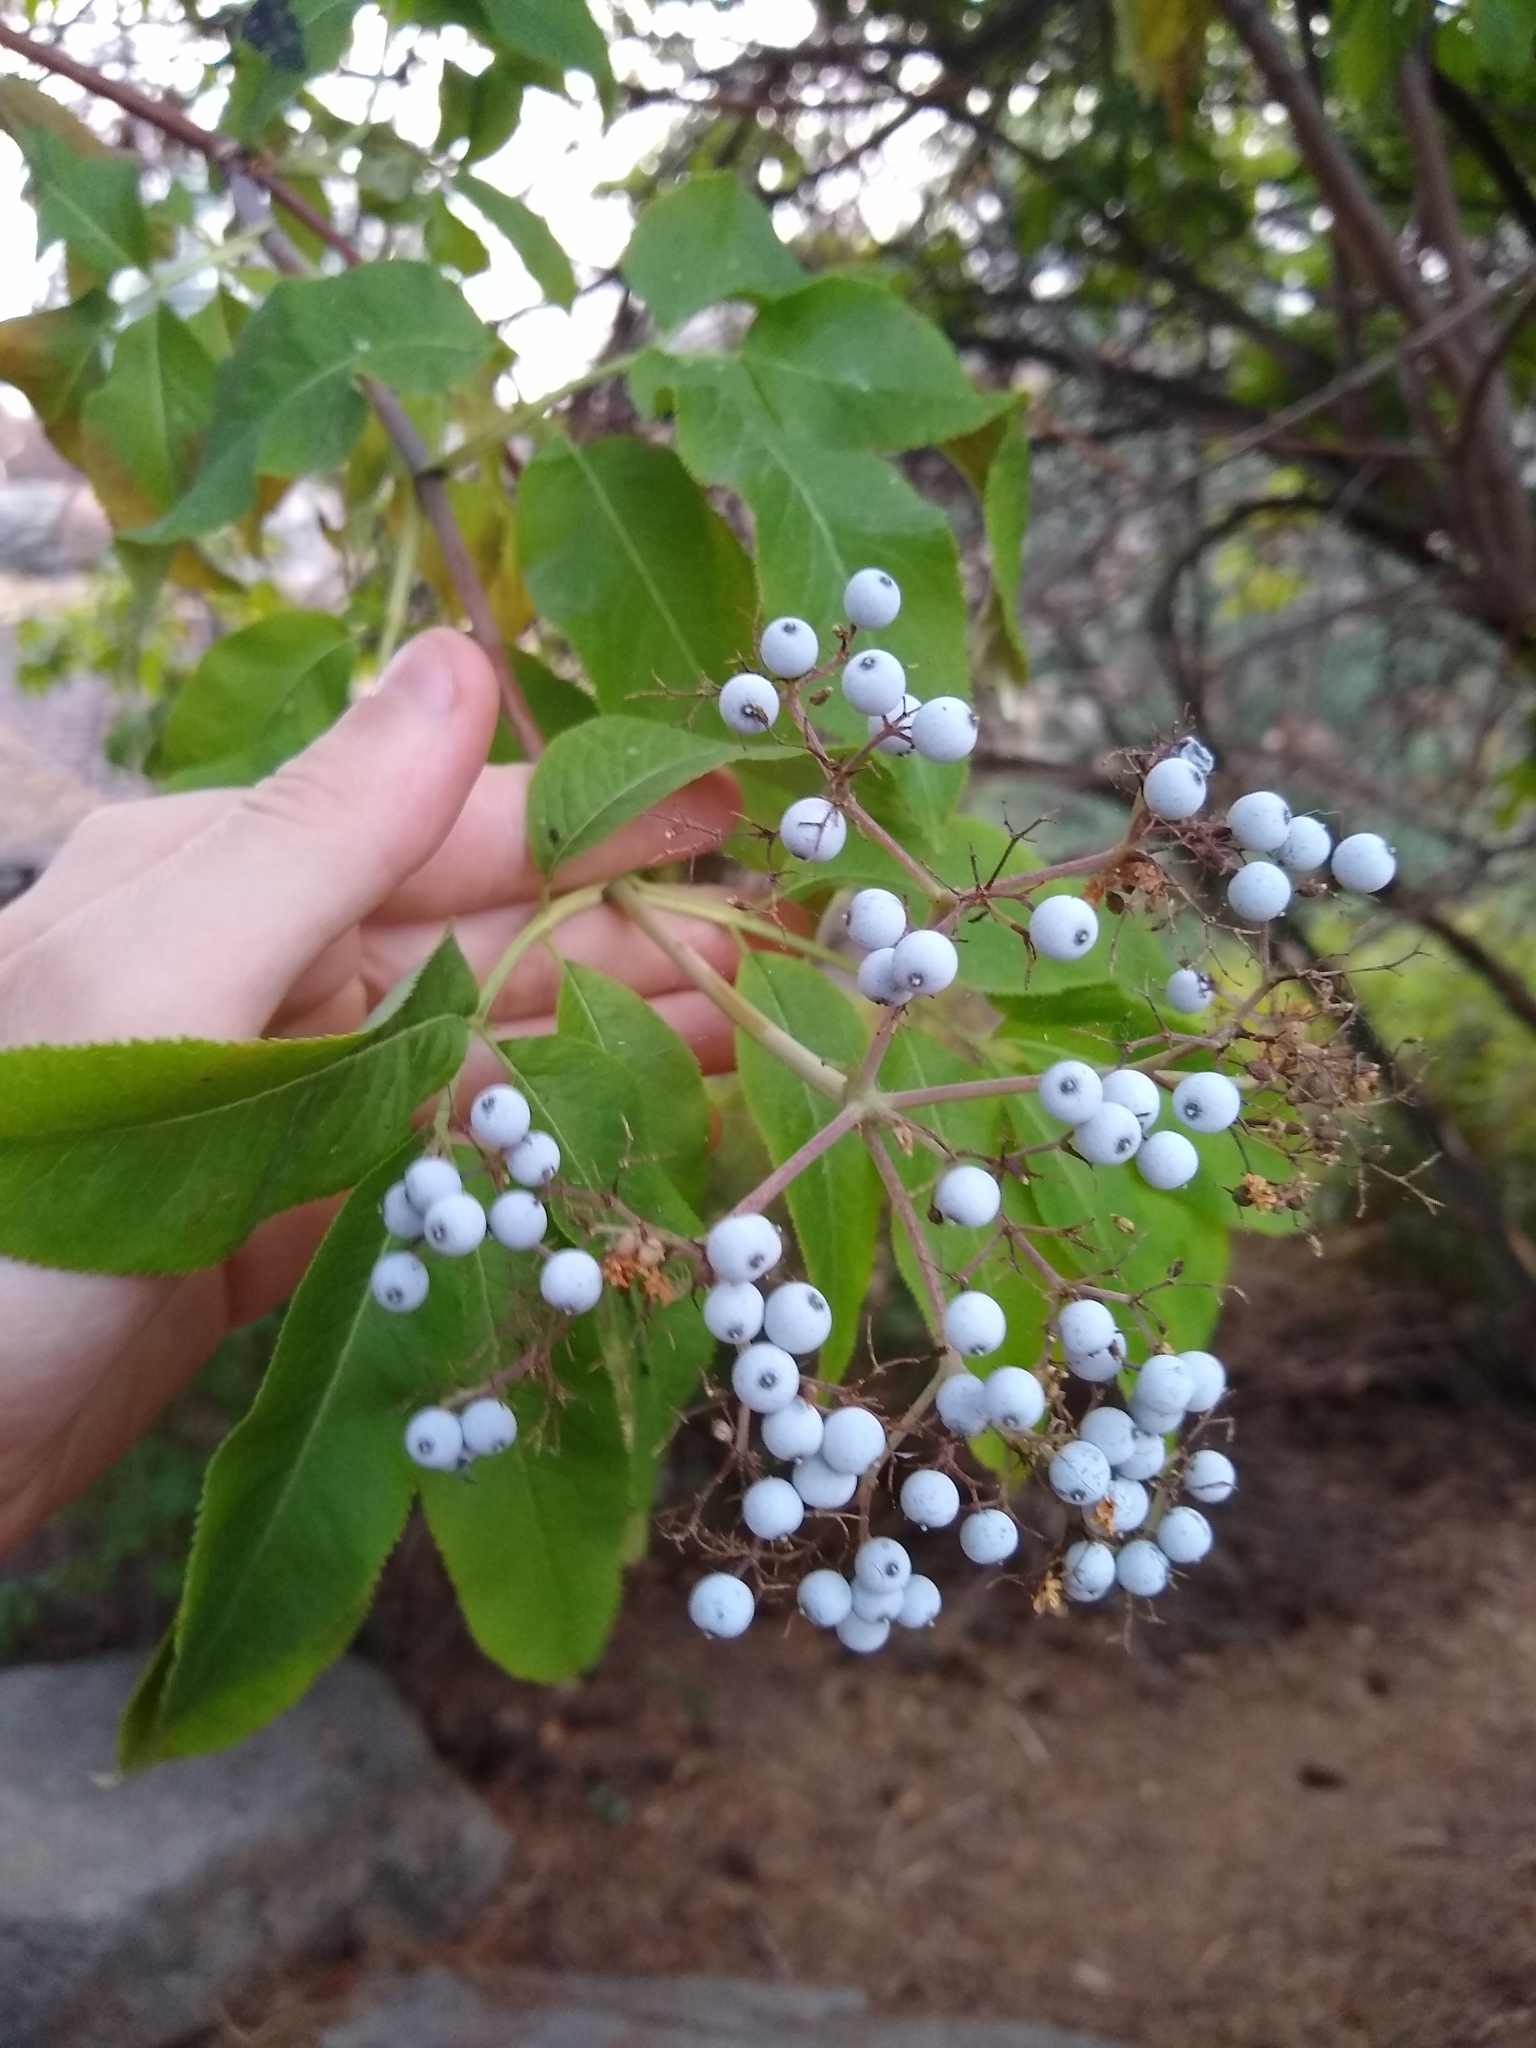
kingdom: Plantae
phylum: Tracheophyta
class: Magnoliopsida
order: Dipsacales
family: Viburnaceae
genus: Sambucus
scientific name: Sambucus cerulea
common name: Blue elder
